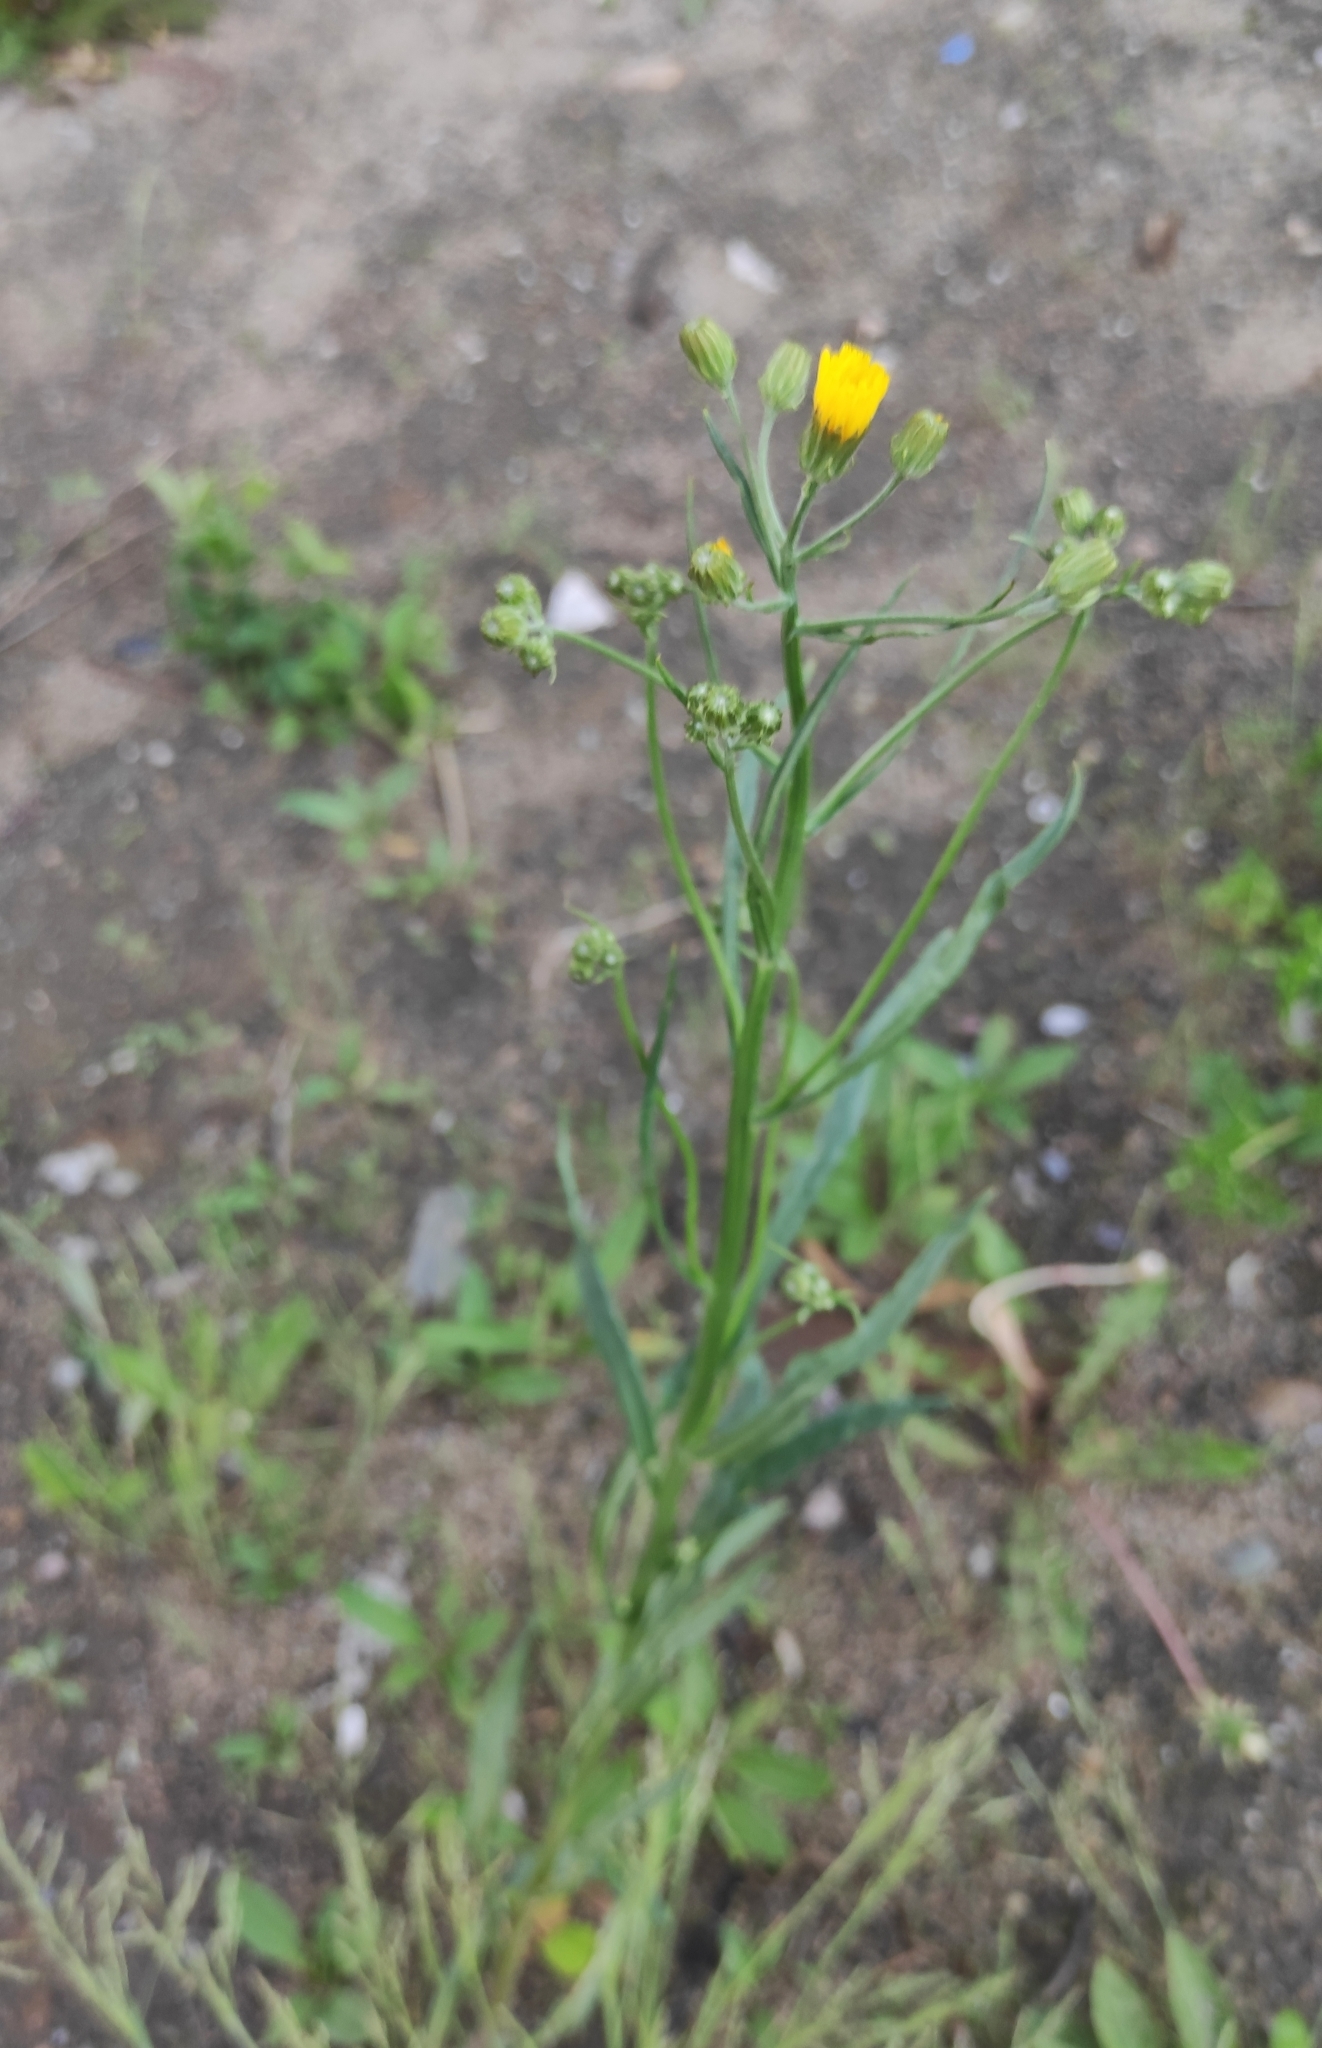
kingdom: Plantae
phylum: Tracheophyta
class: Magnoliopsida
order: Asterales
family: Asteraceae
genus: Crepis
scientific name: Crepis tectorum
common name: Narrow-leaved hawk's-beard
